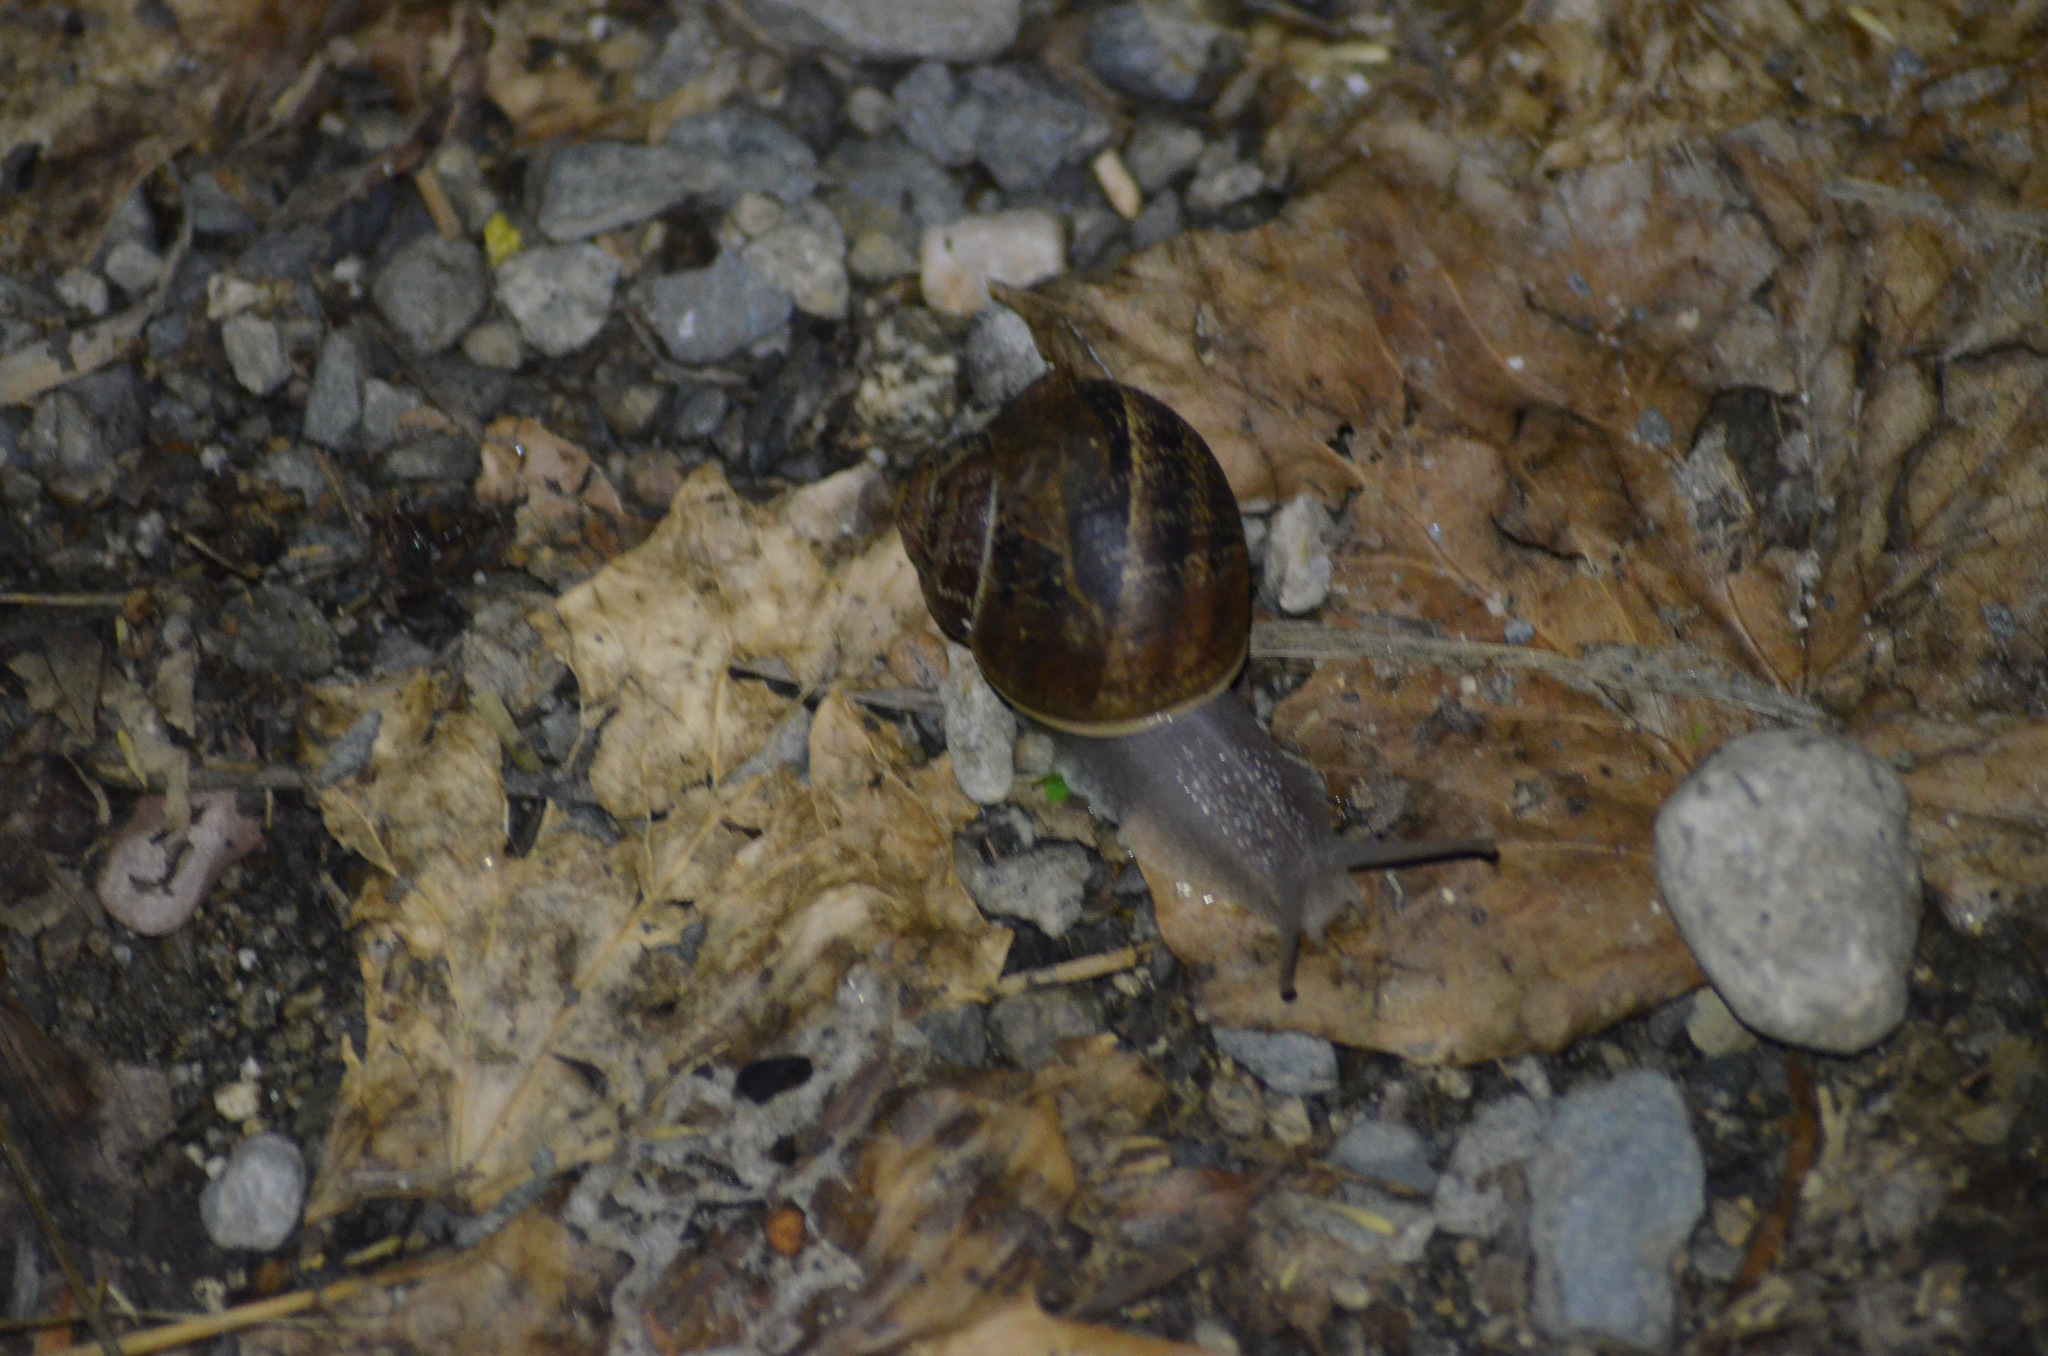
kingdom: Animalia
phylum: Mollusca
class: Gastropoda
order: Stylommatophora
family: Helicidae
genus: Cornu
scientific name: Cornu aspersum
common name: Brown garden snail
